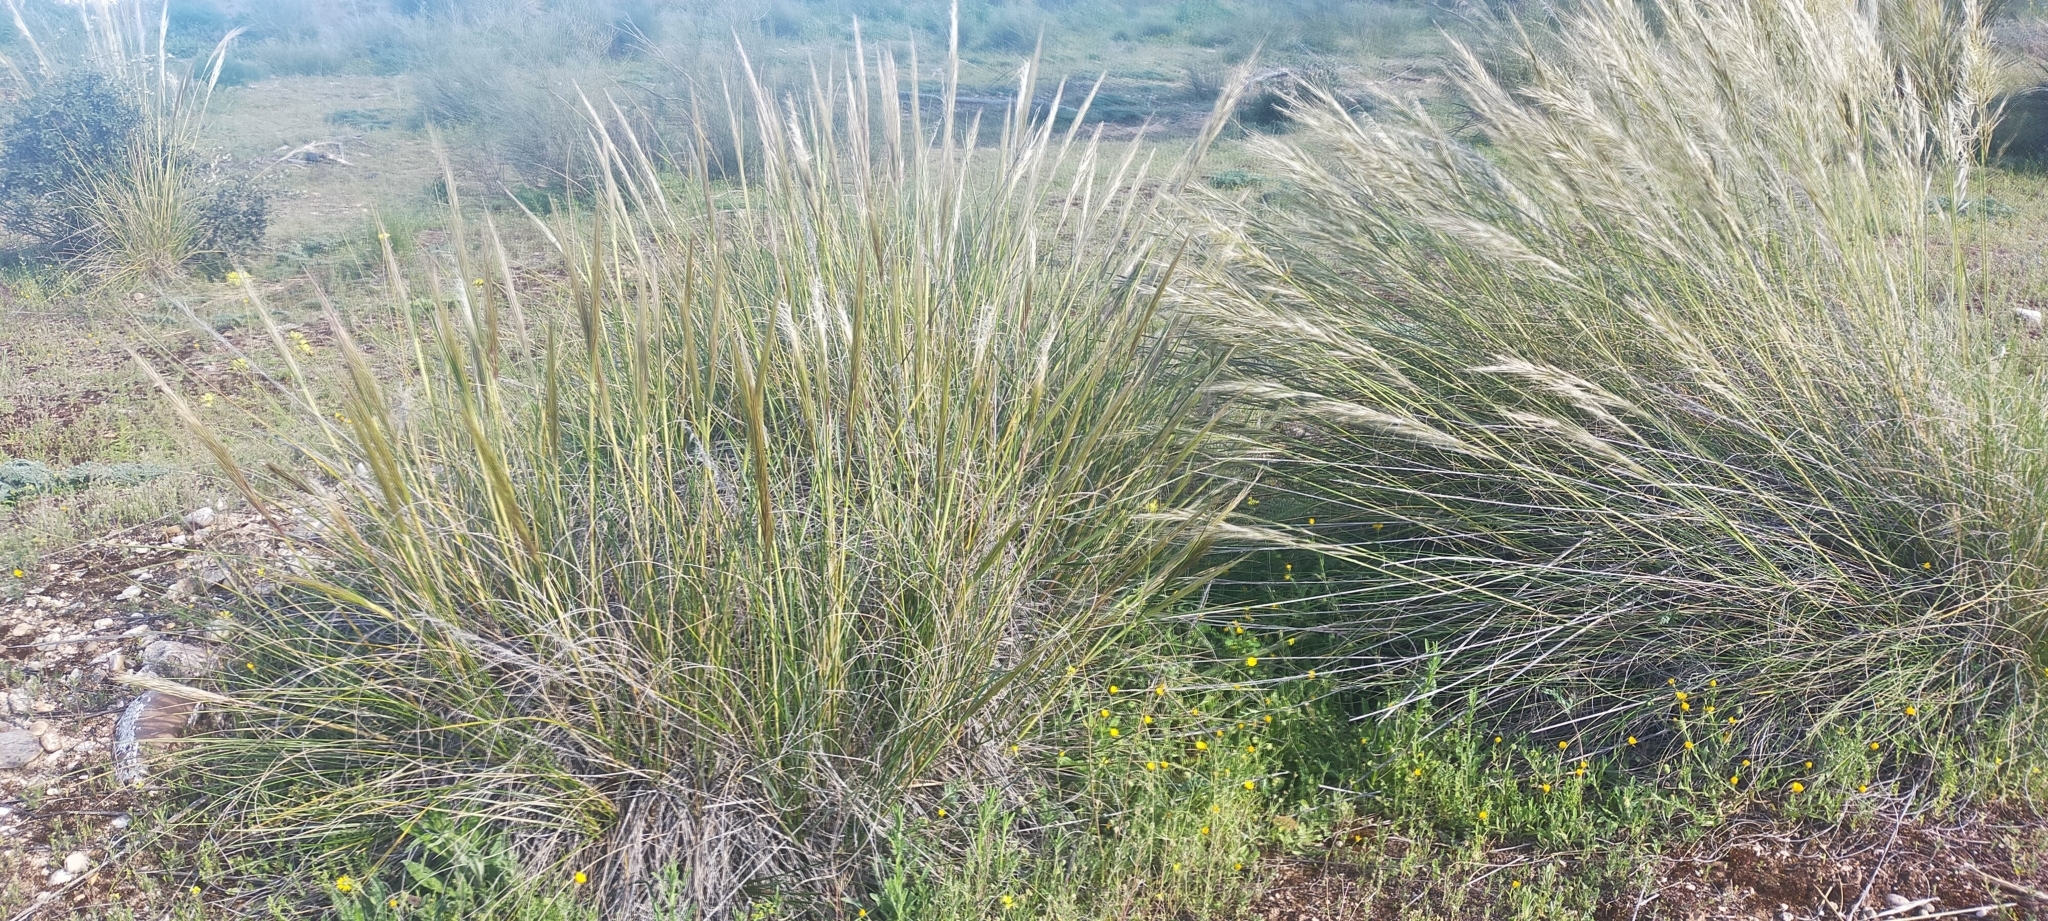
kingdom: Plantae
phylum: Tracheophyta
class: Liliopsida
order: Poales
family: Poaceae
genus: Macrochloa
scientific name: Macrochloa tenacissima
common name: Alfa grass
